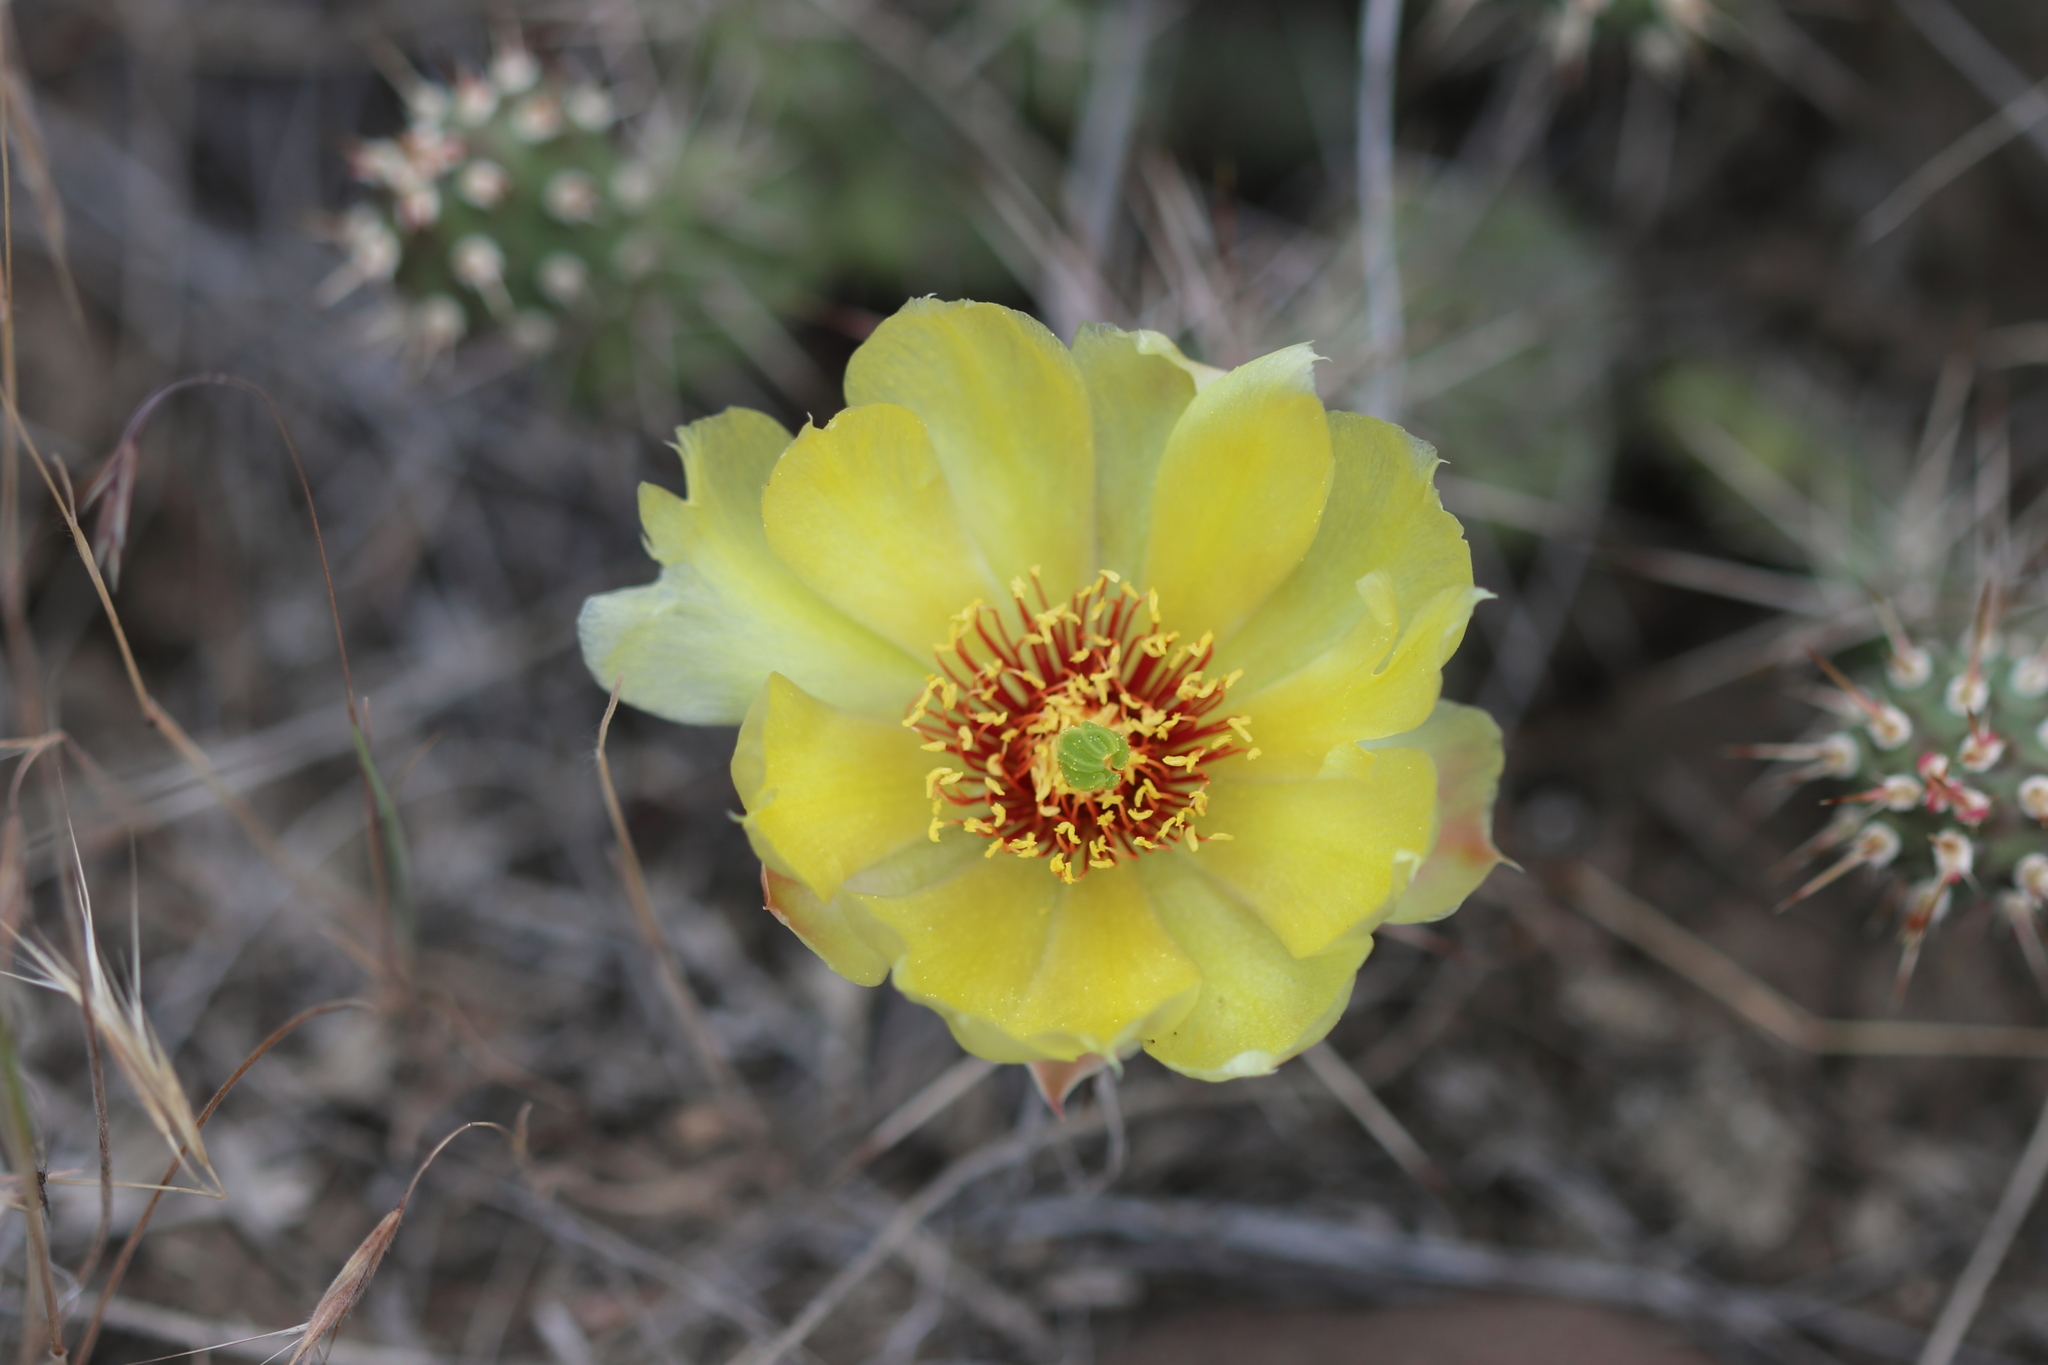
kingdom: Plantae
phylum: Tracheophyta
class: Magnoliopsida
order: Caryophyllales
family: Cactaceae
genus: Opuntia
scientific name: Opuntia fragilis
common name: Brittle cactus
